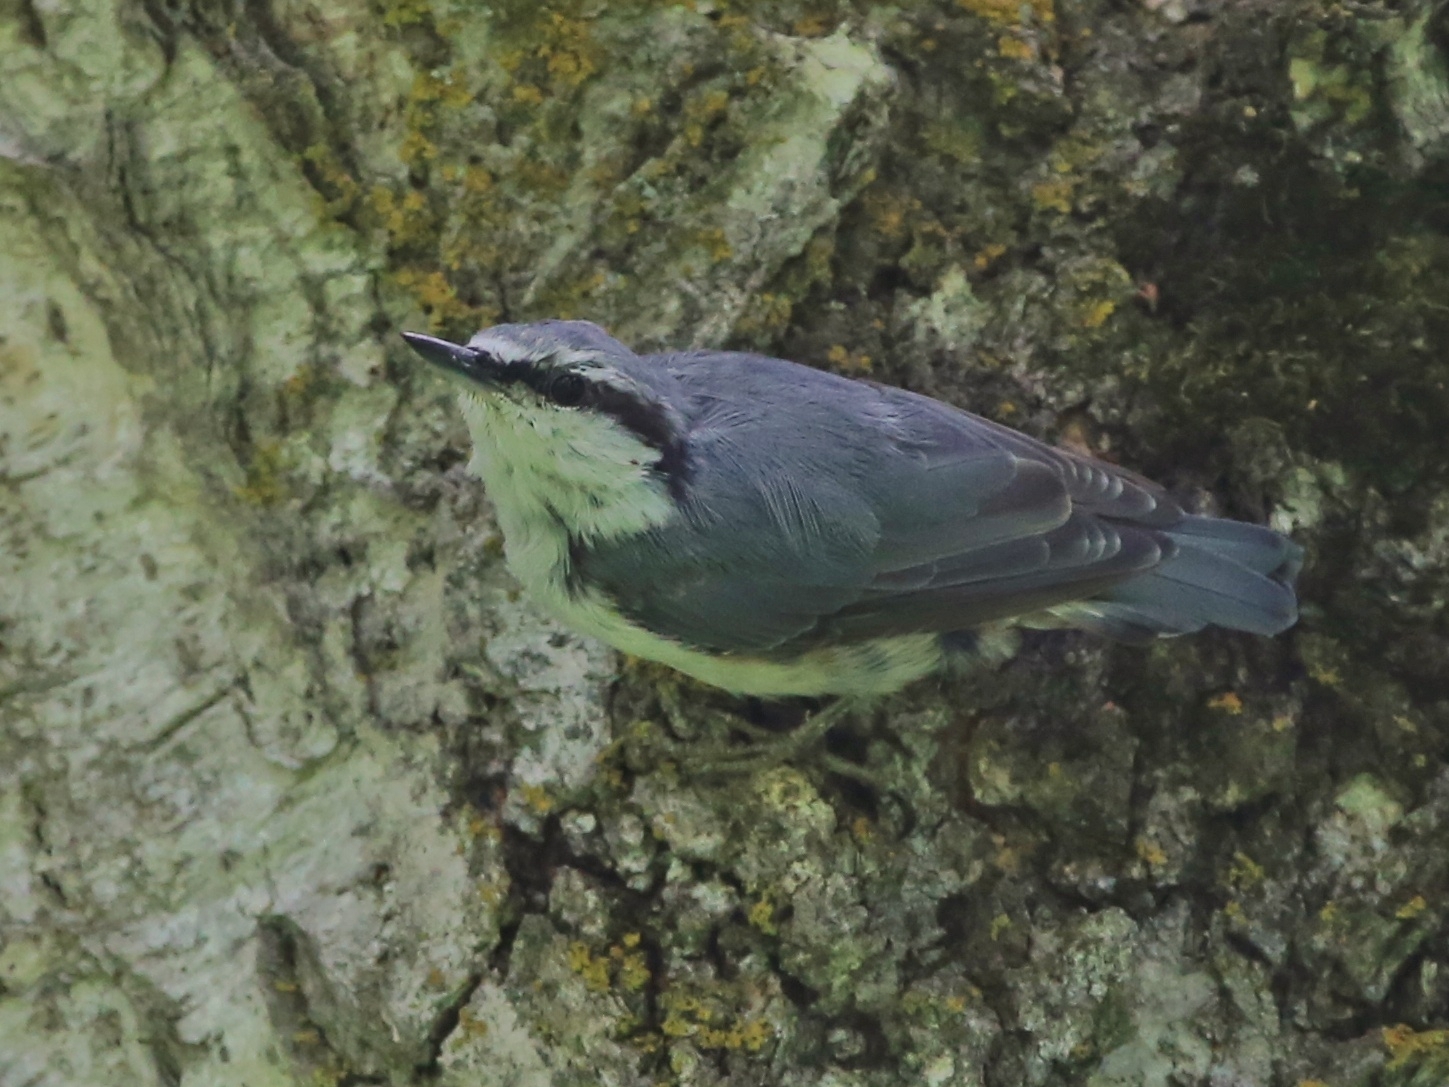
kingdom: Animalia
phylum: Chordata
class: Aves
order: Passeriformes
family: Sittidae
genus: Sitta
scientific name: Sitta europaea
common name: Eurasian nuthatch
